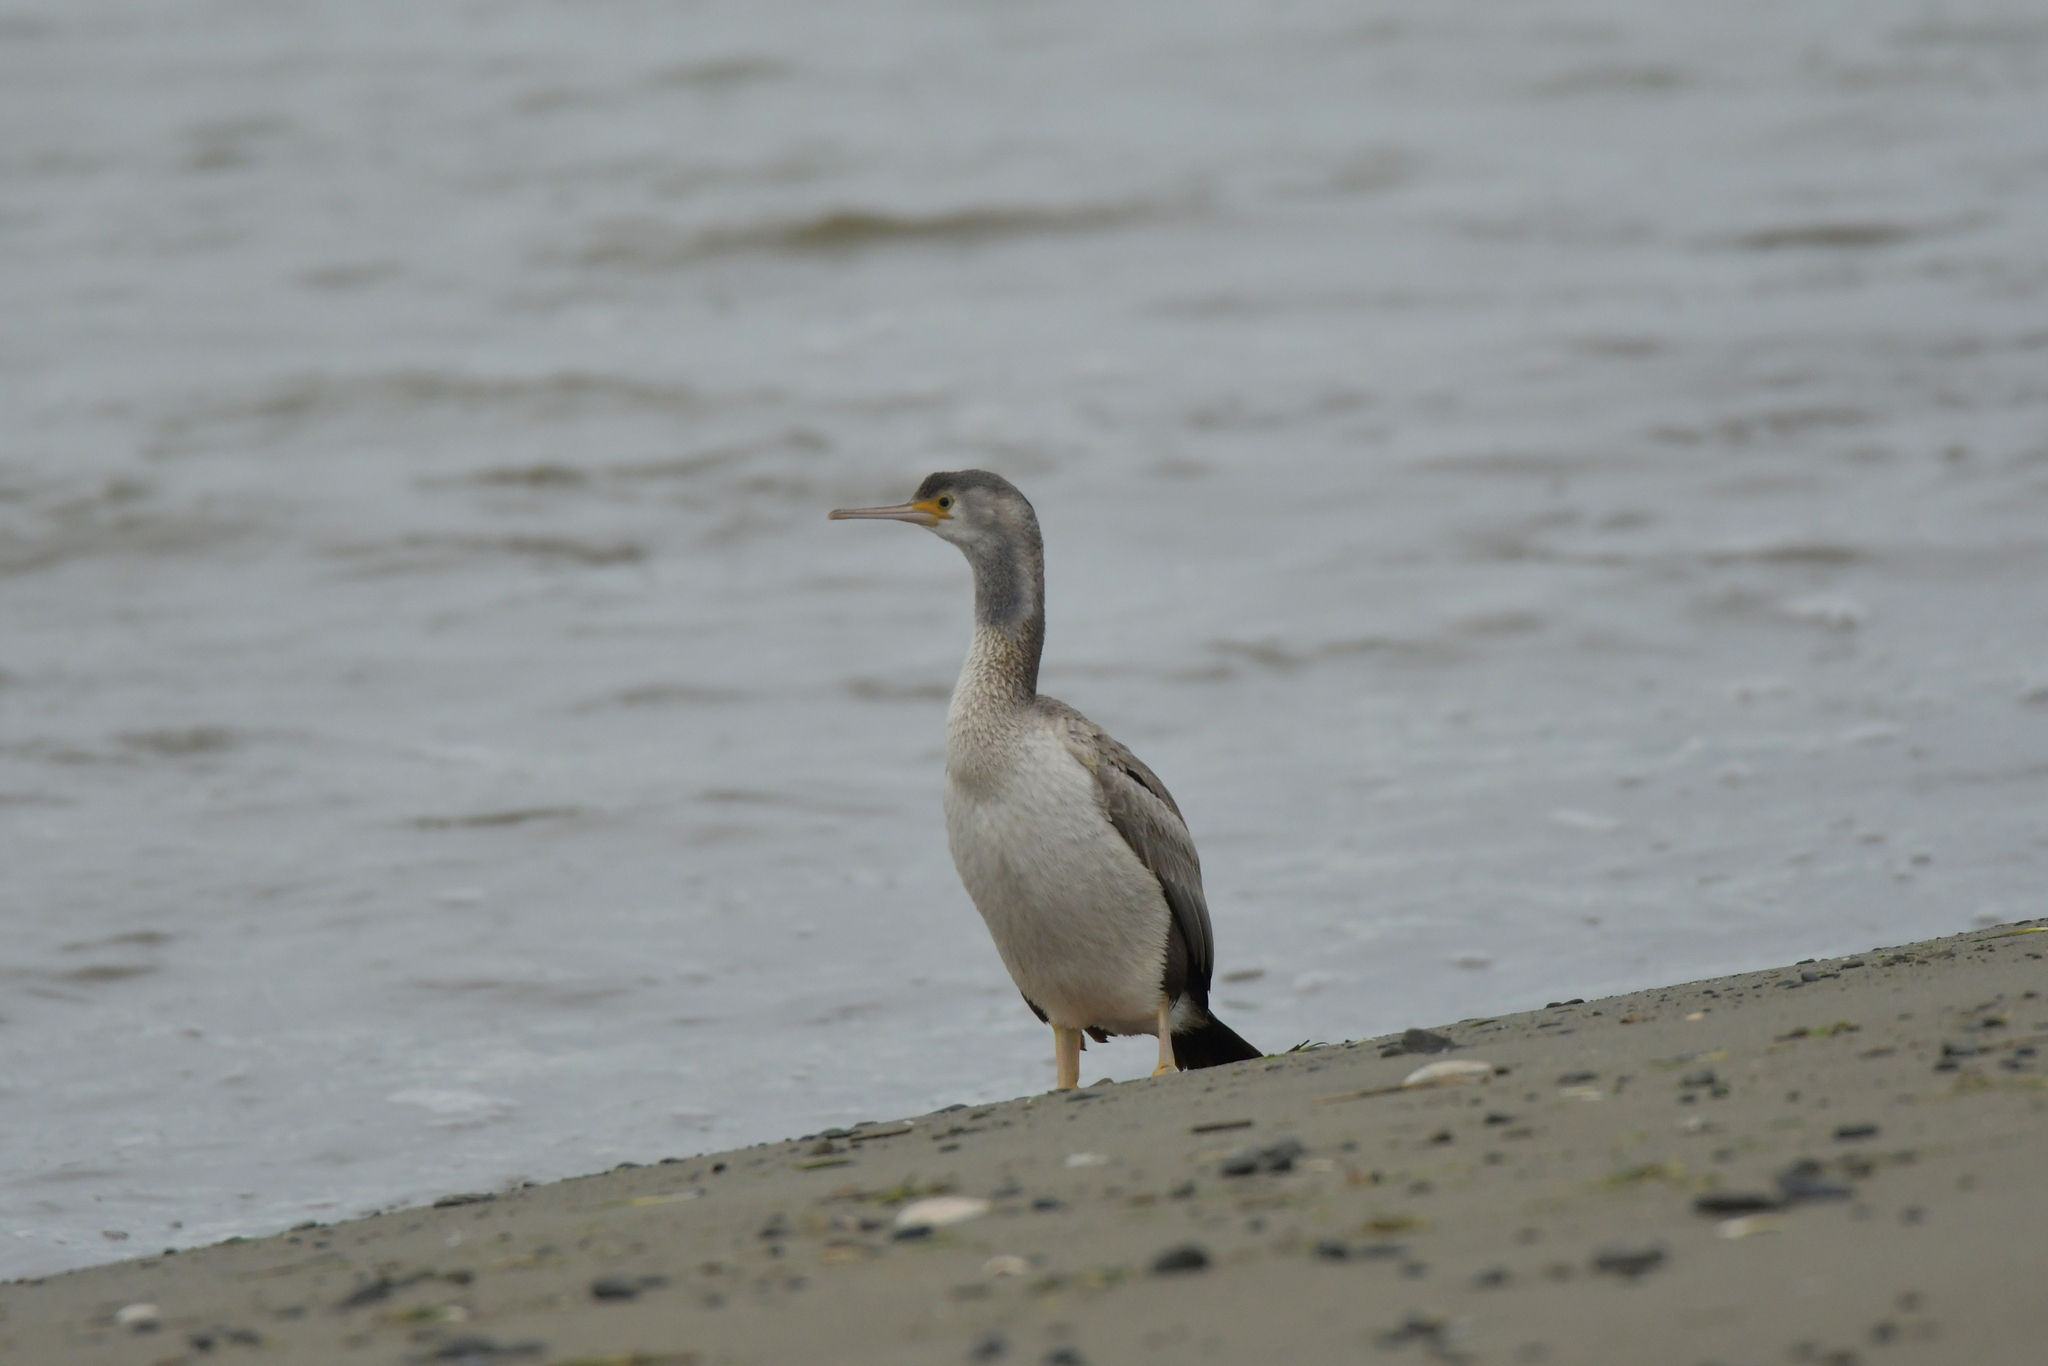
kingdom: Animalia
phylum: Chordata
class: Aves
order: Suliformes
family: Phalacrocoracidae
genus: Phalacrocorax
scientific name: Phalacrocorax punctatus
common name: Spotted shag
